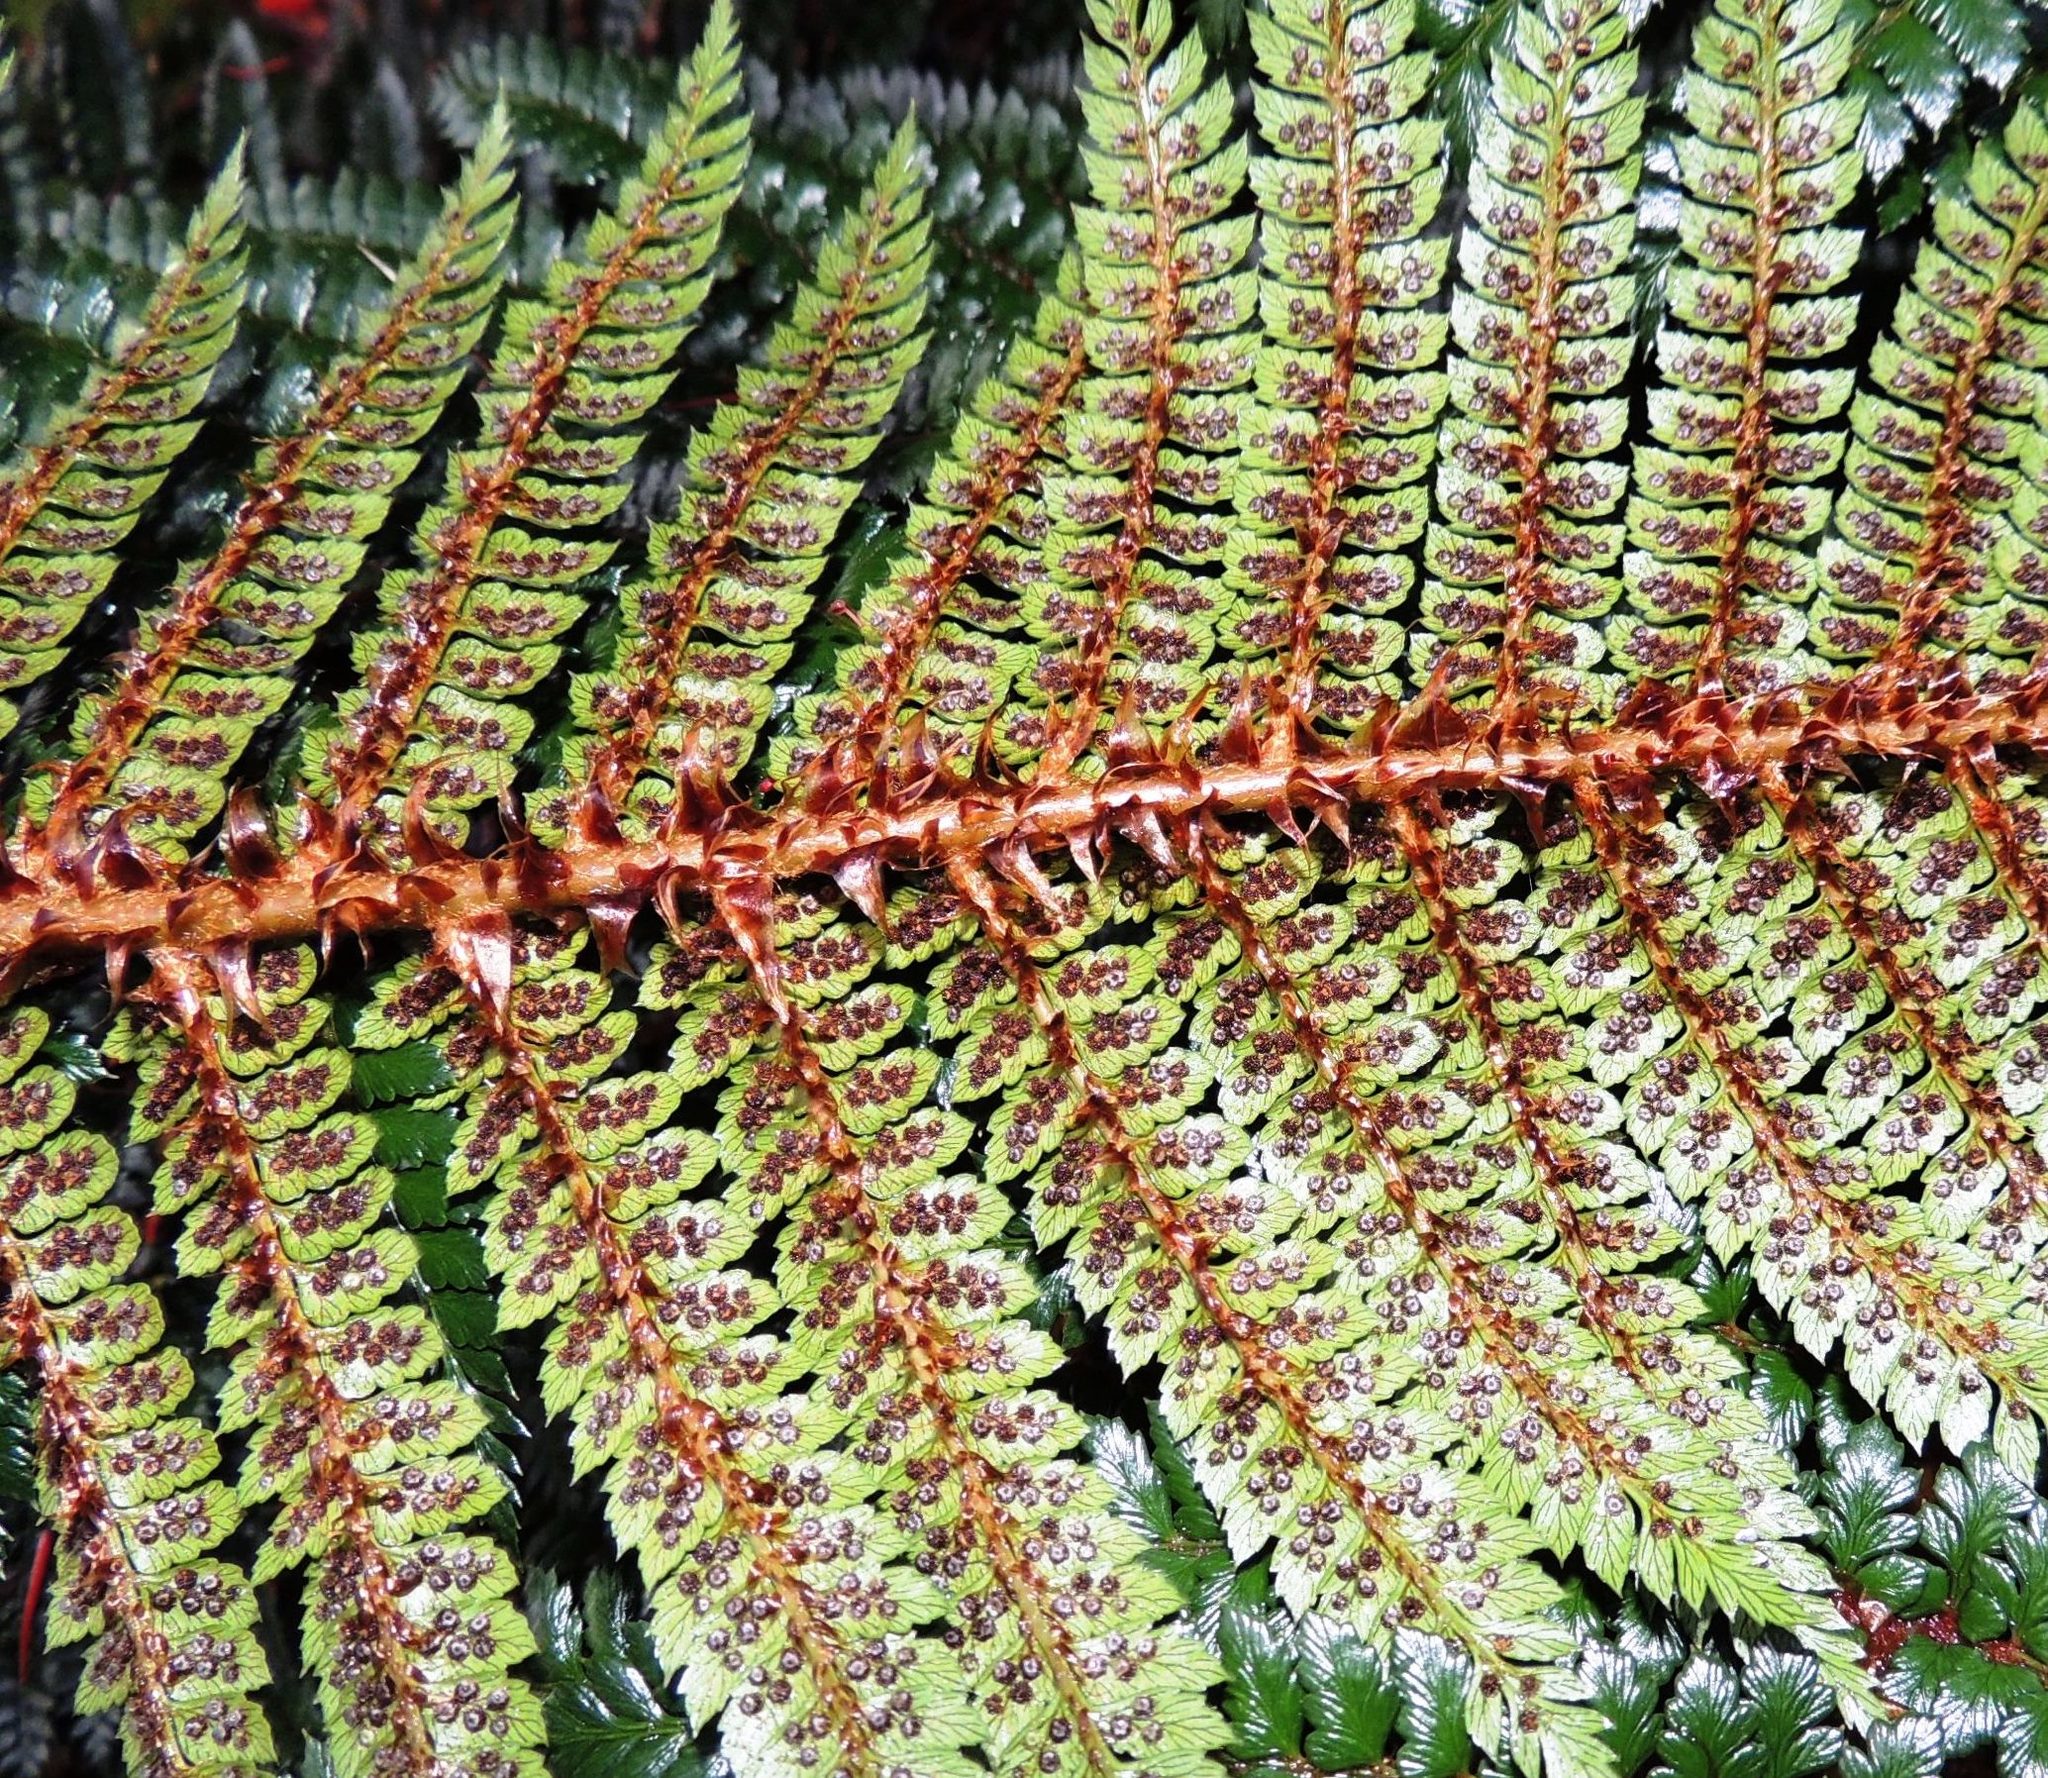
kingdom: Plantae
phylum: Tracheophyta
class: Polypodiopsida
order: Polypodiales
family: Dryopteridaceae
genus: Polystichum
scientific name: Polystichum vestitum
